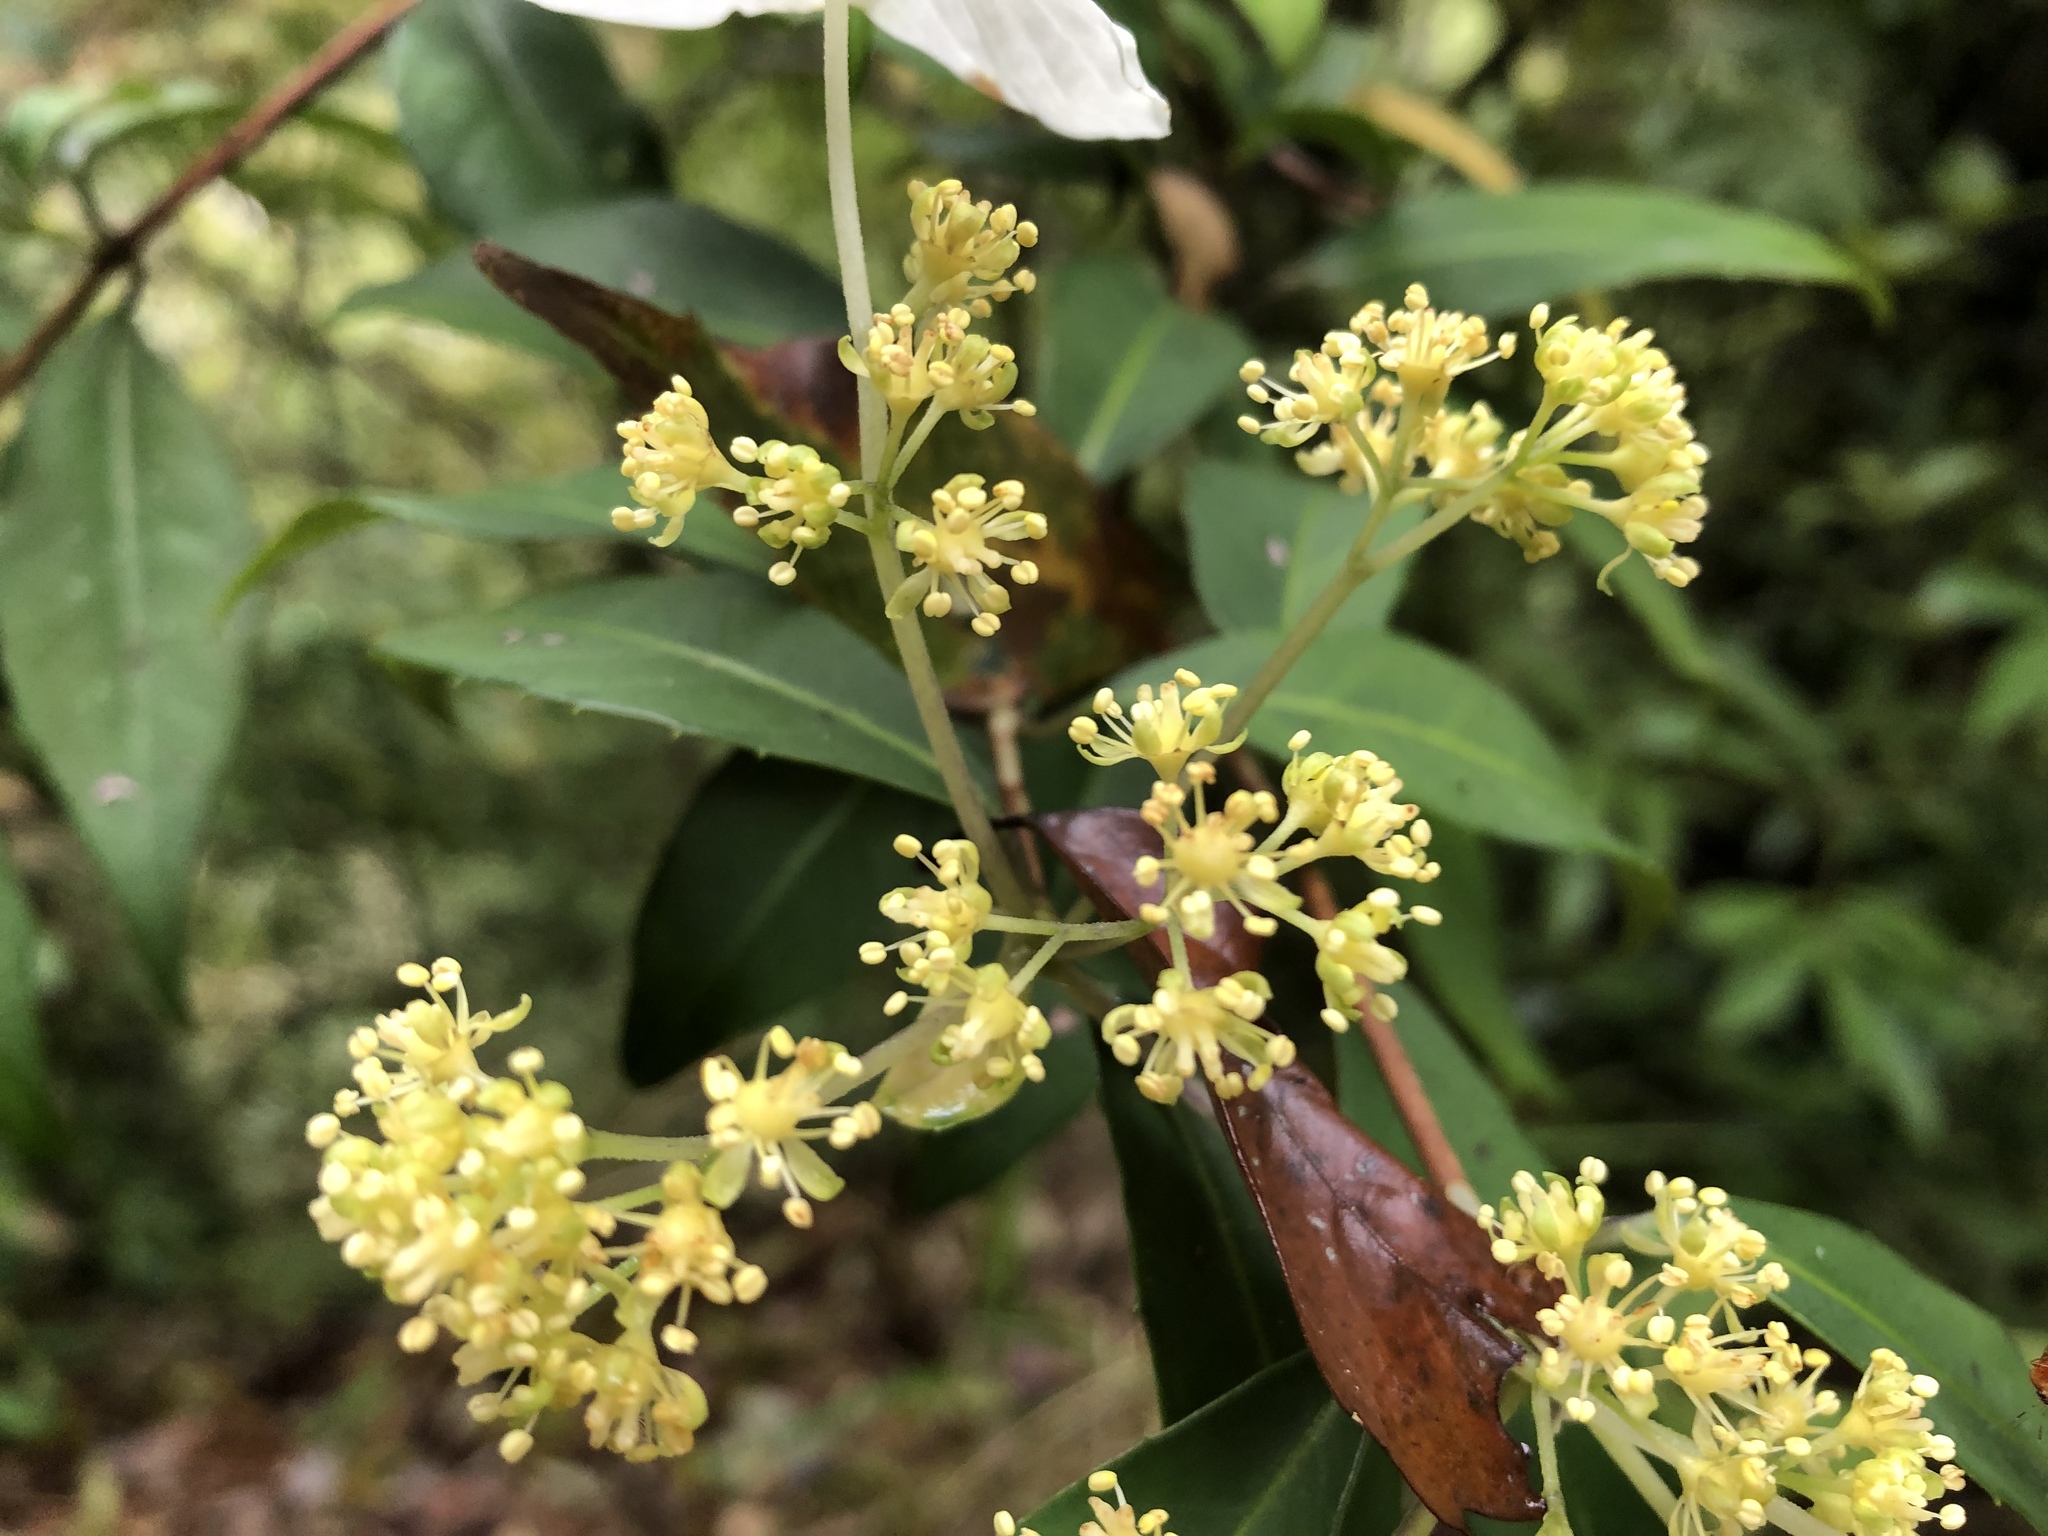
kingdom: Plantae
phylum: Tracheophyta
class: Magnoliopsida
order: Cornales
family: Hydrangeaceae
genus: Hydrangea
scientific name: Hydrangea chinensis
